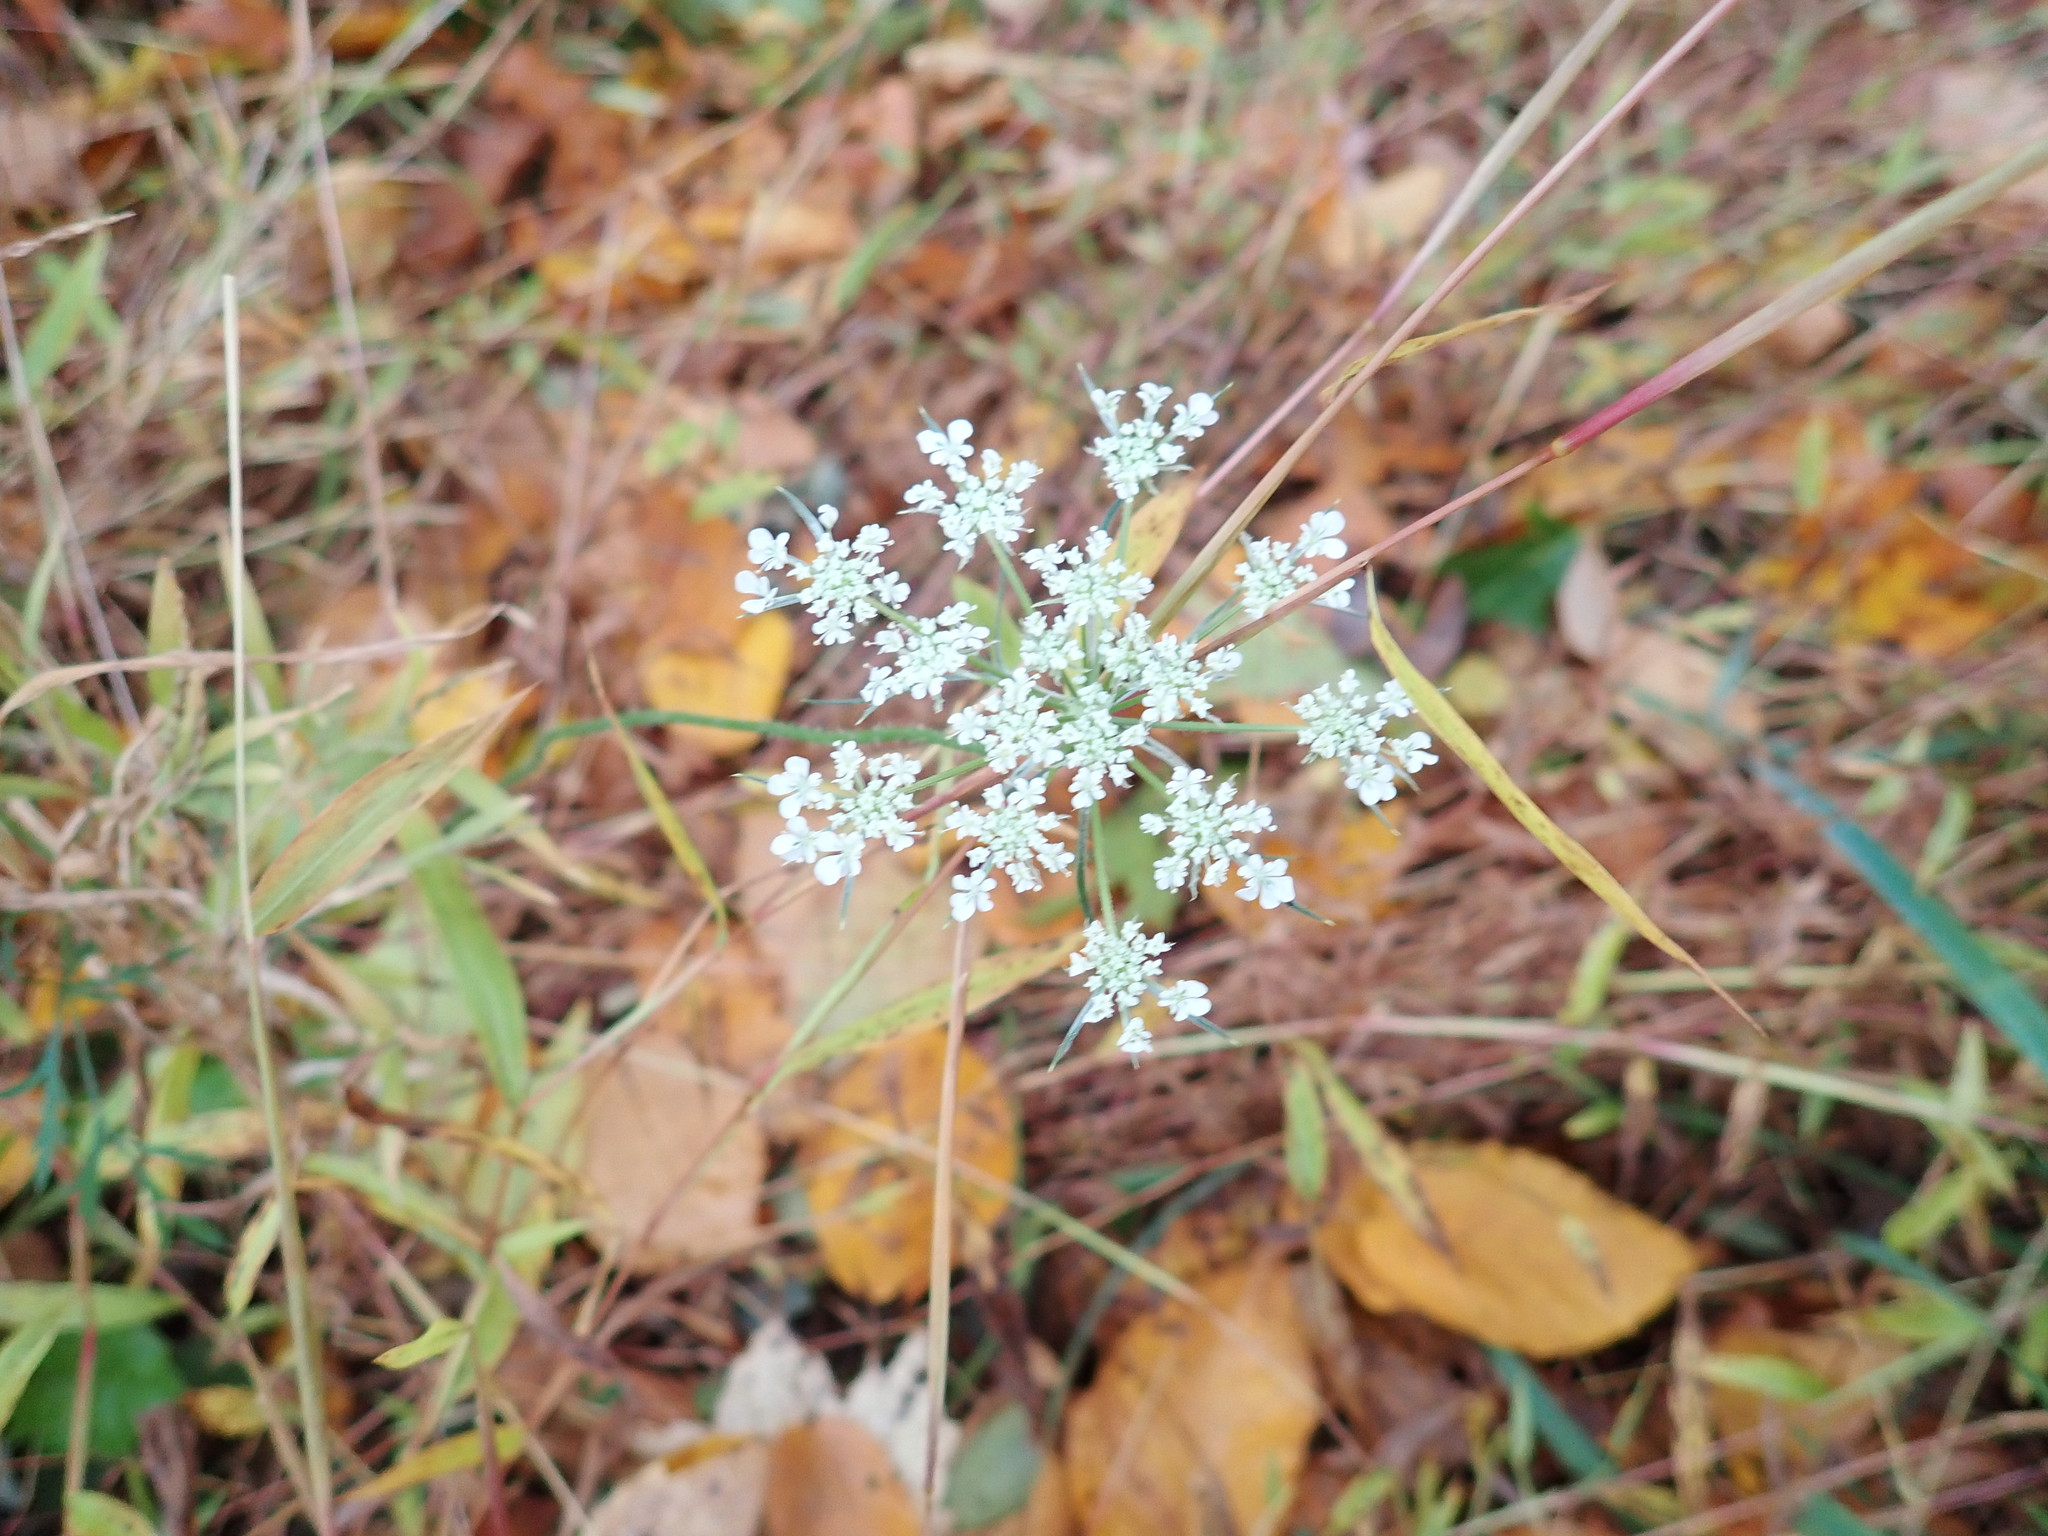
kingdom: Plantae
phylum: Tracheophyta
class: Magnoliopsida
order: Apiales
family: Apiaceae
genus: Daucus
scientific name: Daucus carota
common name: Wild carrot
